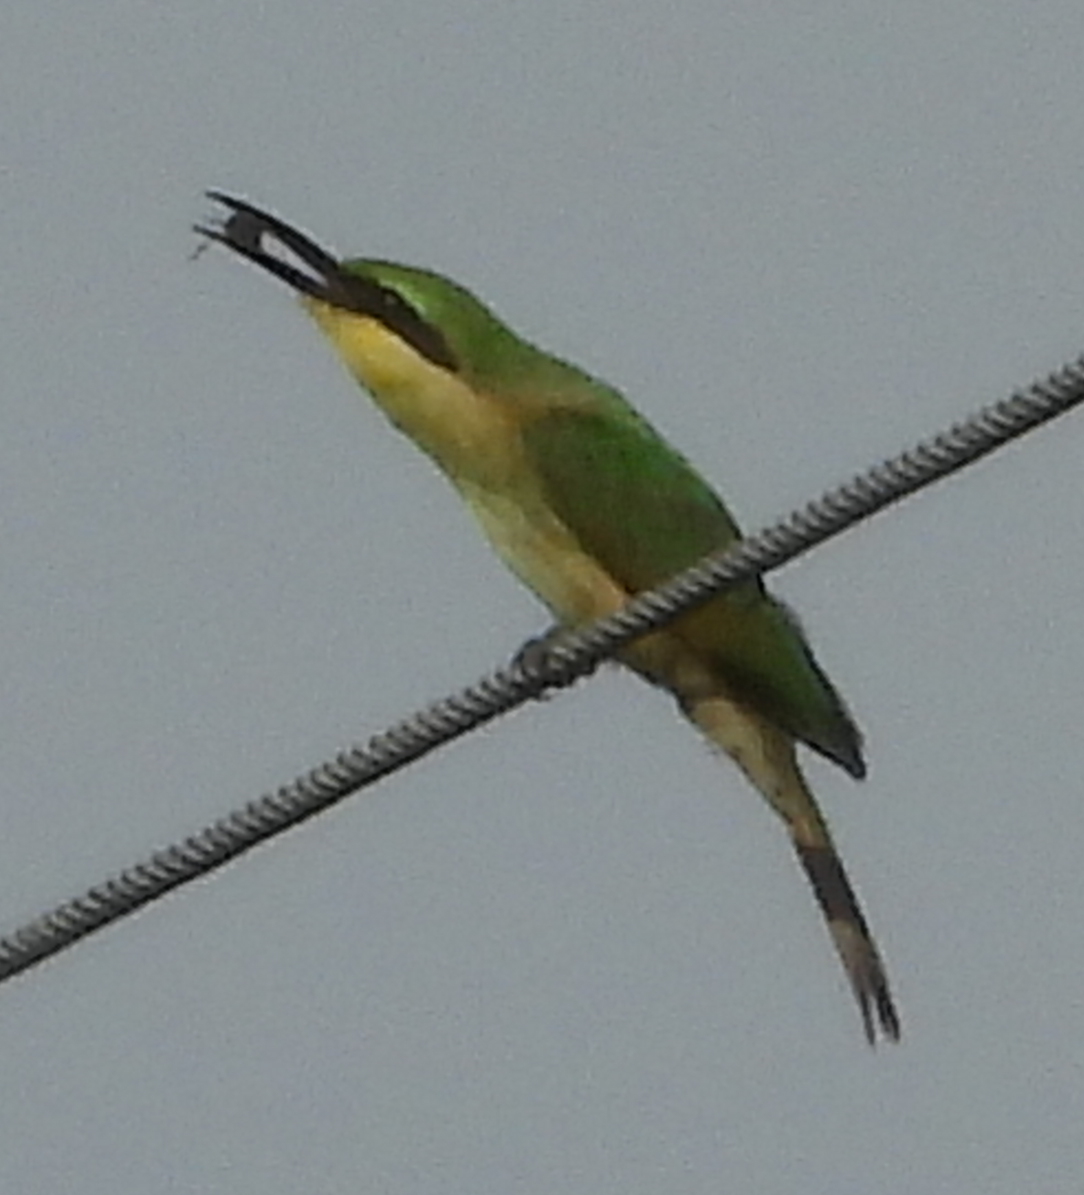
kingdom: Animalia
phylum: Chordata
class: Aves
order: Coraciiformes
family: Meropidae
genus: Merops
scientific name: Merops pusillus
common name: Little bee-eater
